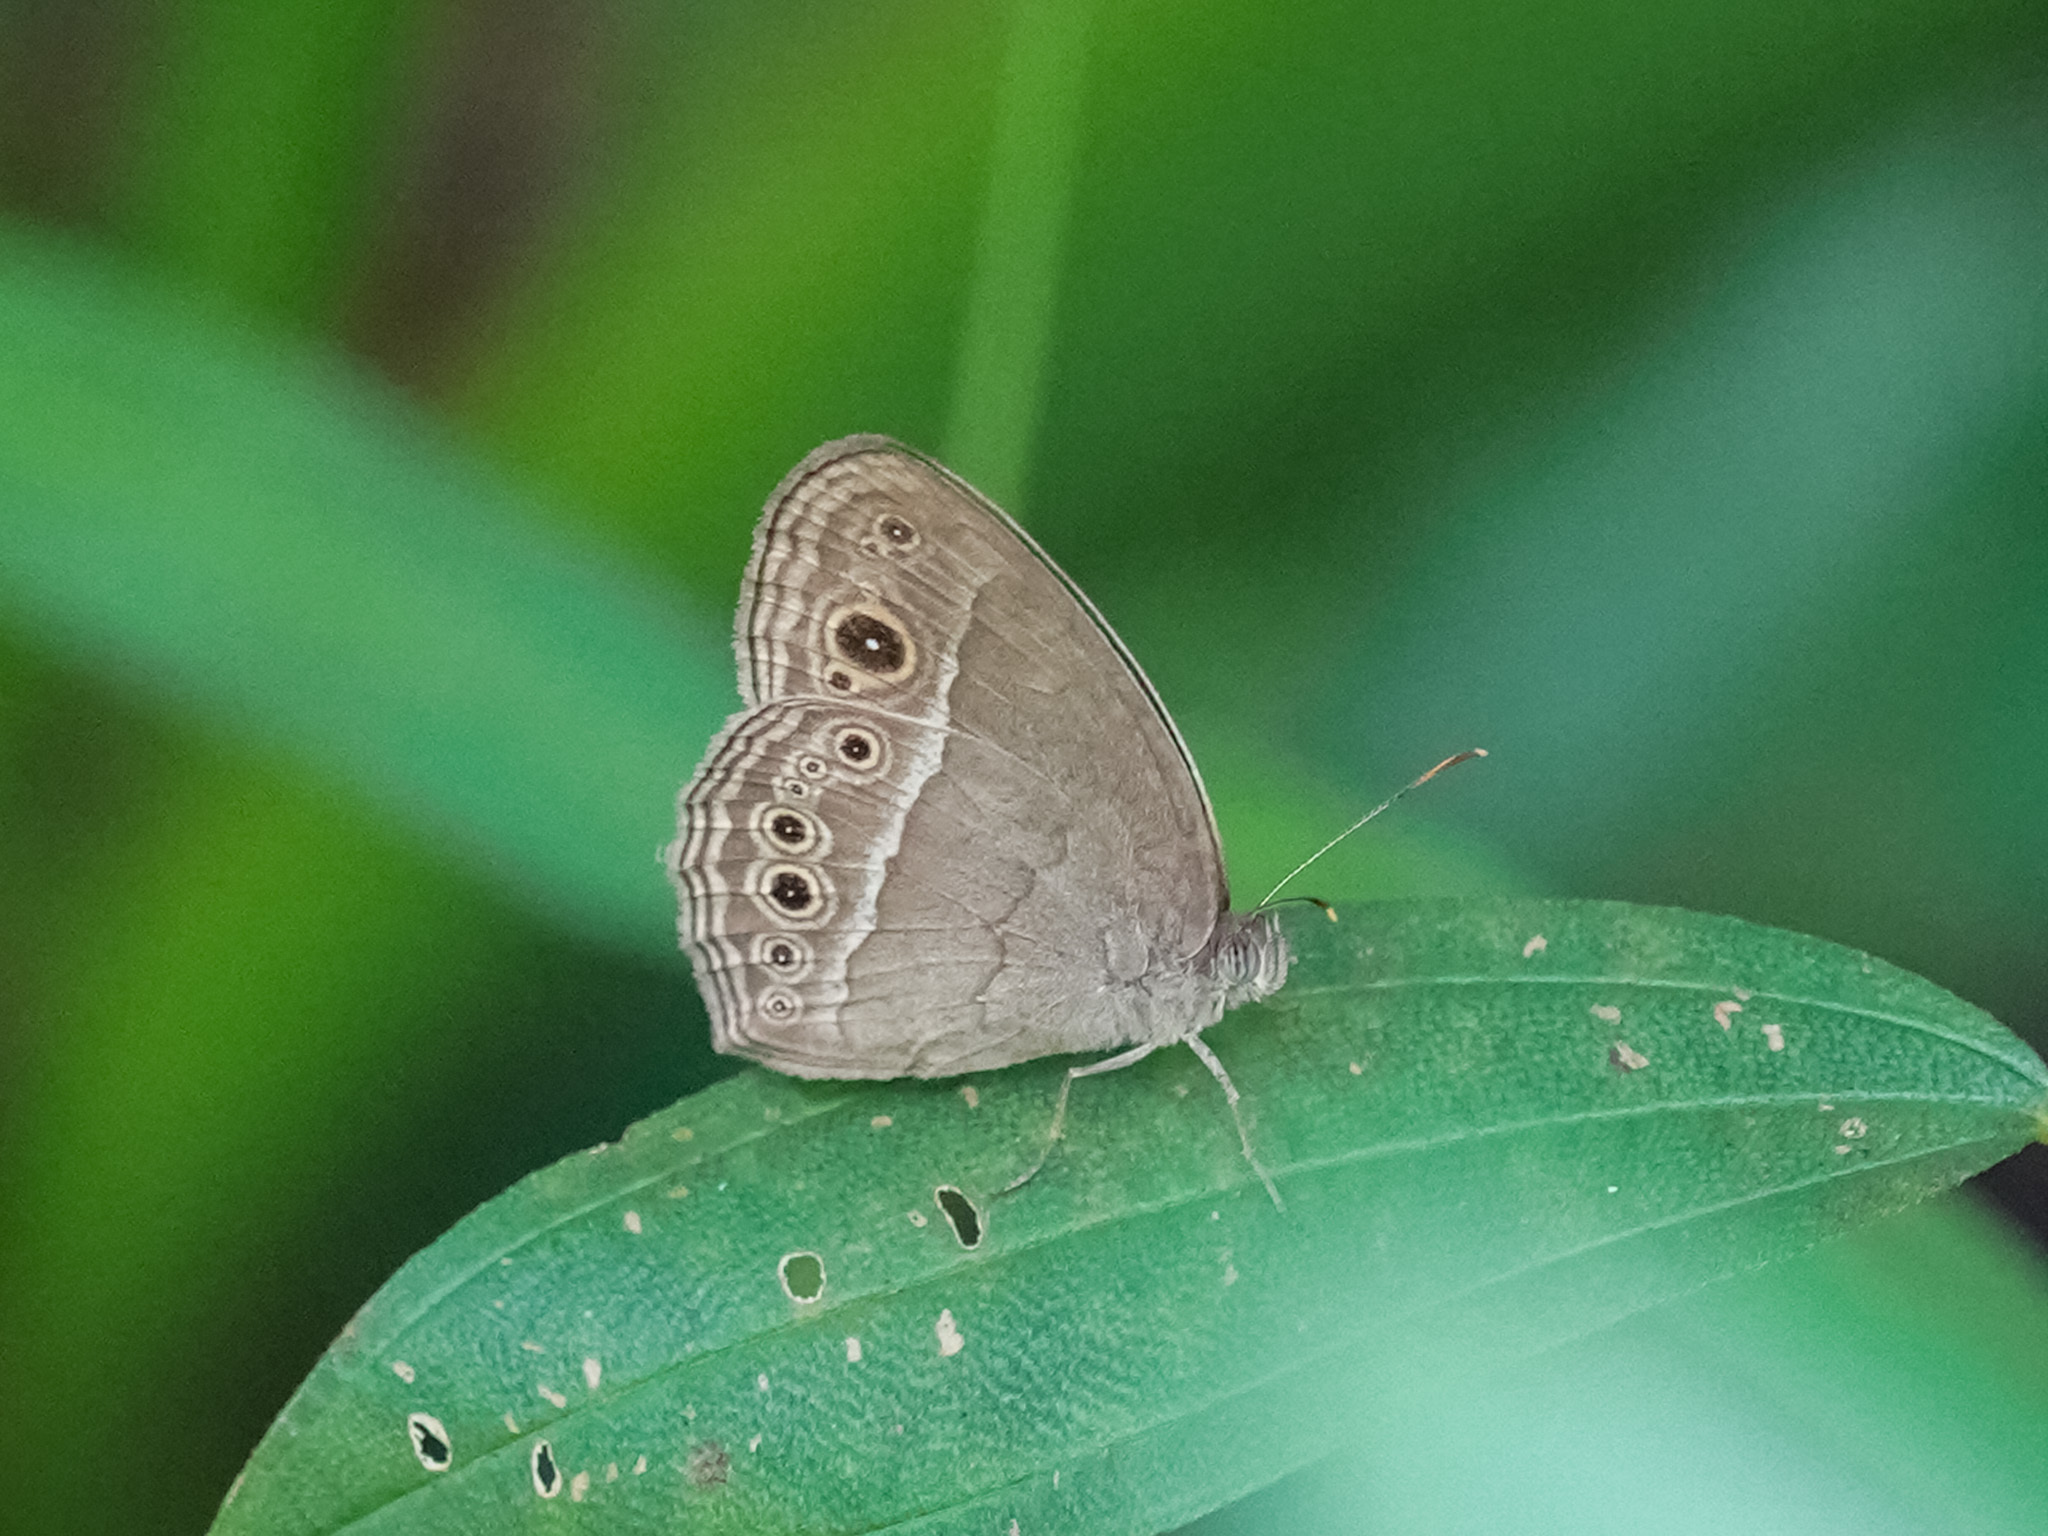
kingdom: Animalia
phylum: Arthropoda
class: Insecta
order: Lepidoptera
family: Nymphalidae
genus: Mycalesis
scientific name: Mycalesis perseoides
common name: Burmese bushbrown
